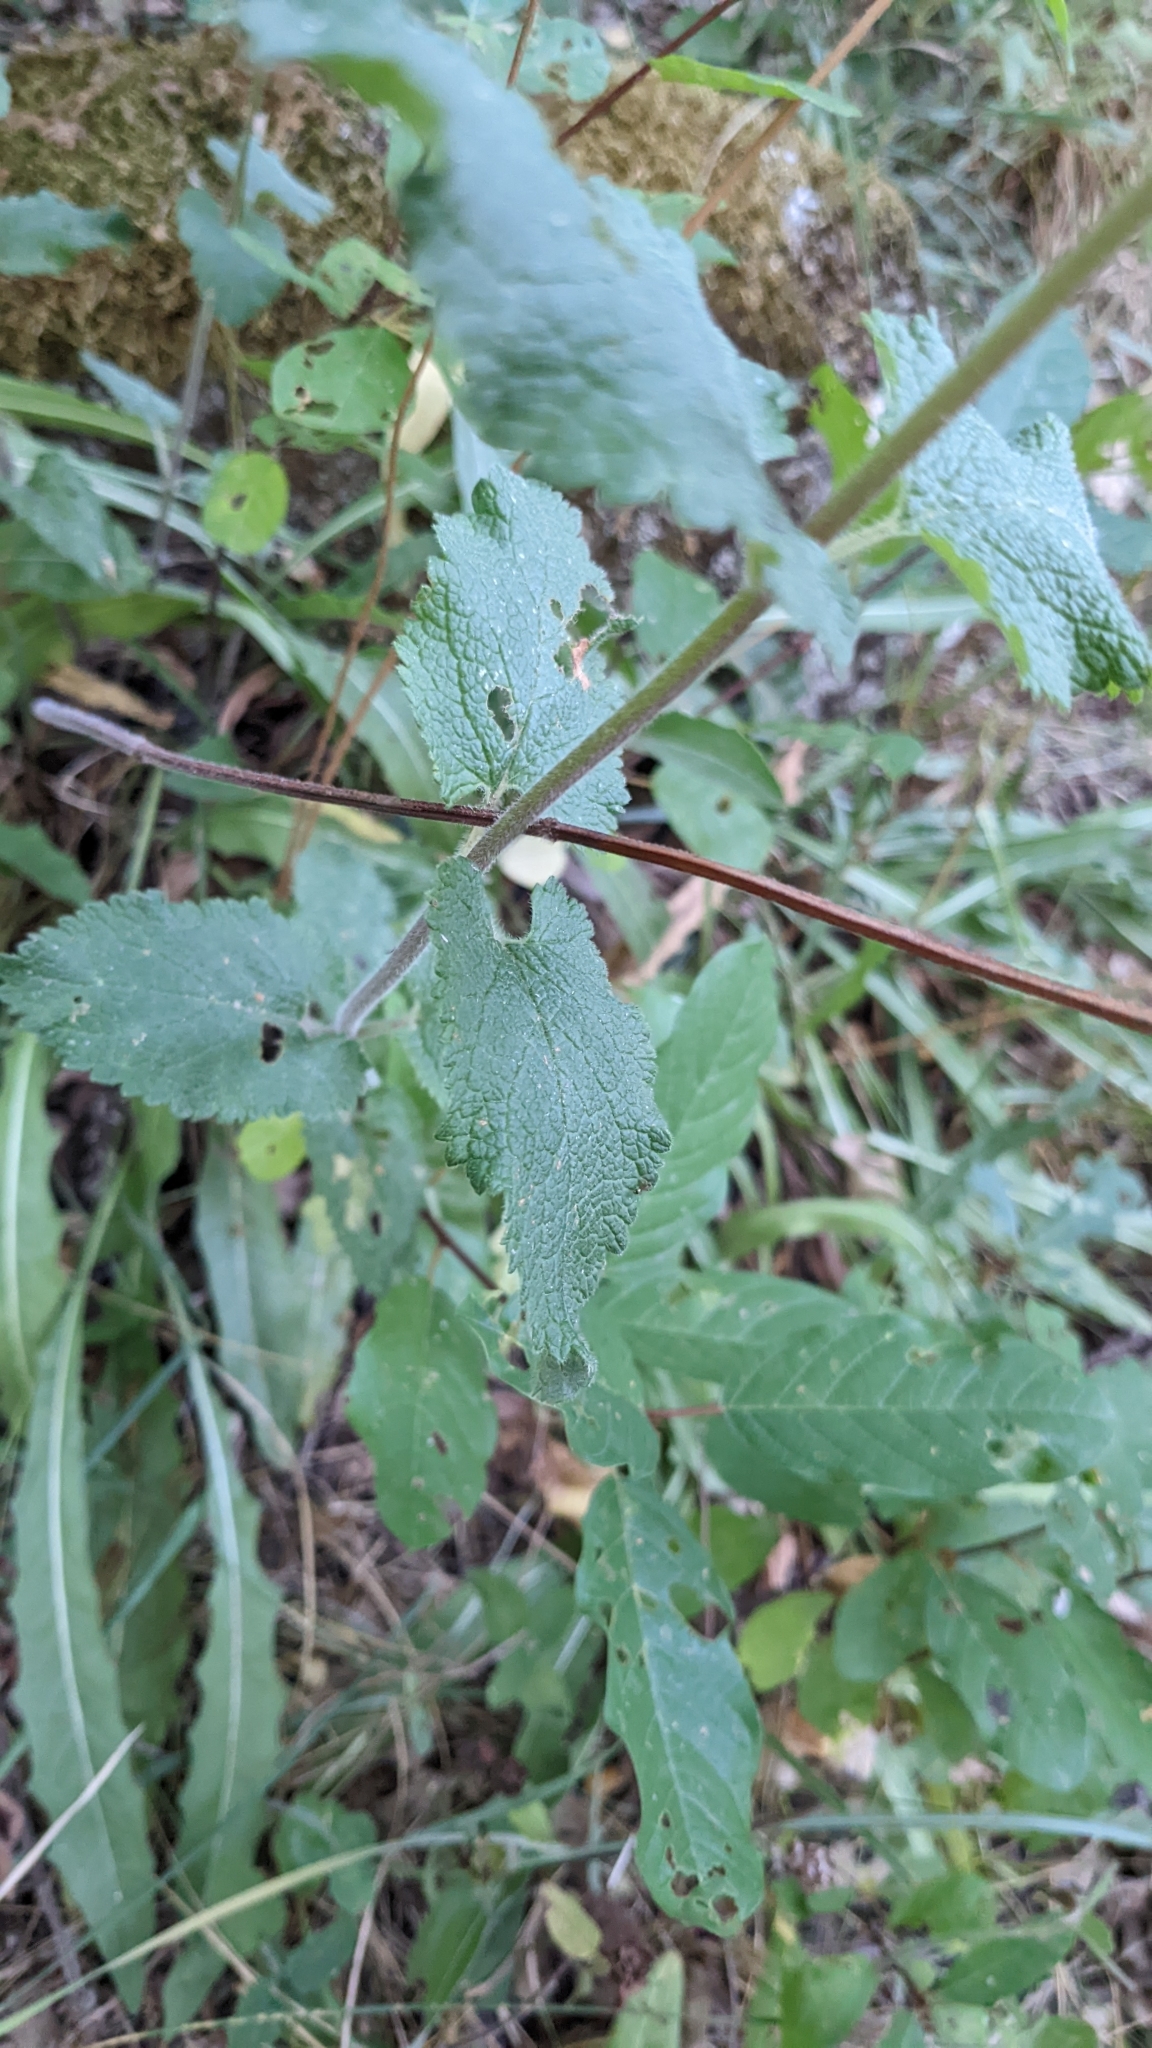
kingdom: Plantae
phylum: Tracheophyta
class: Magnoliopsida
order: Lamiales
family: Lamiaceae
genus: Teucrium
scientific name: Teucrium scorodonia
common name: Woodland germander
